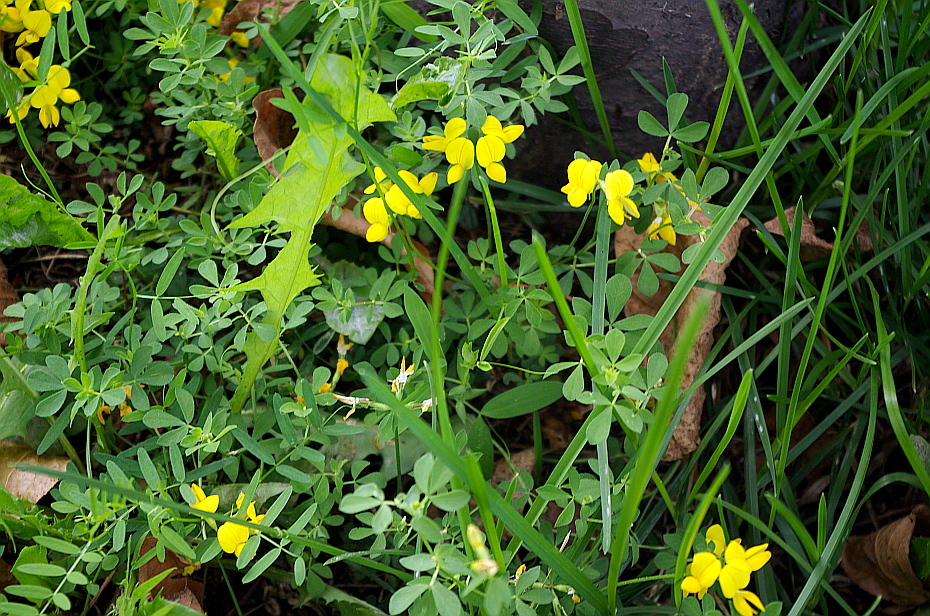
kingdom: Plantae
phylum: Tracheophyta
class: Magnoliopsida
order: Fabales
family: Fabaceae
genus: Lotus
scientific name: Lotus corniculatus
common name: Common bird's-foot-trefoil
